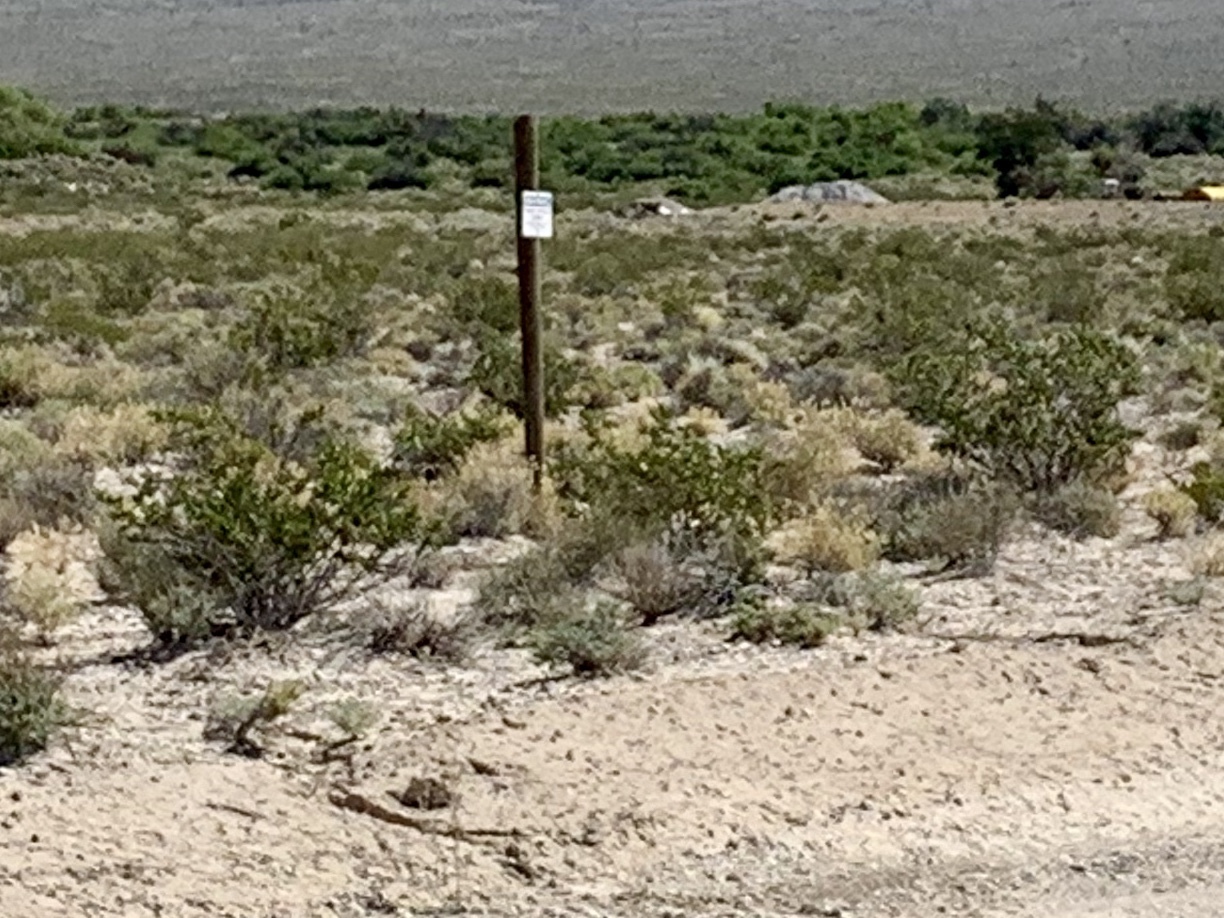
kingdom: Plantae
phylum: Tracheophyta
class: Magnoliopsida
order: Zygophyllales
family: Zygophyllaceae
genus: Larrea
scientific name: Larrea tridentata
